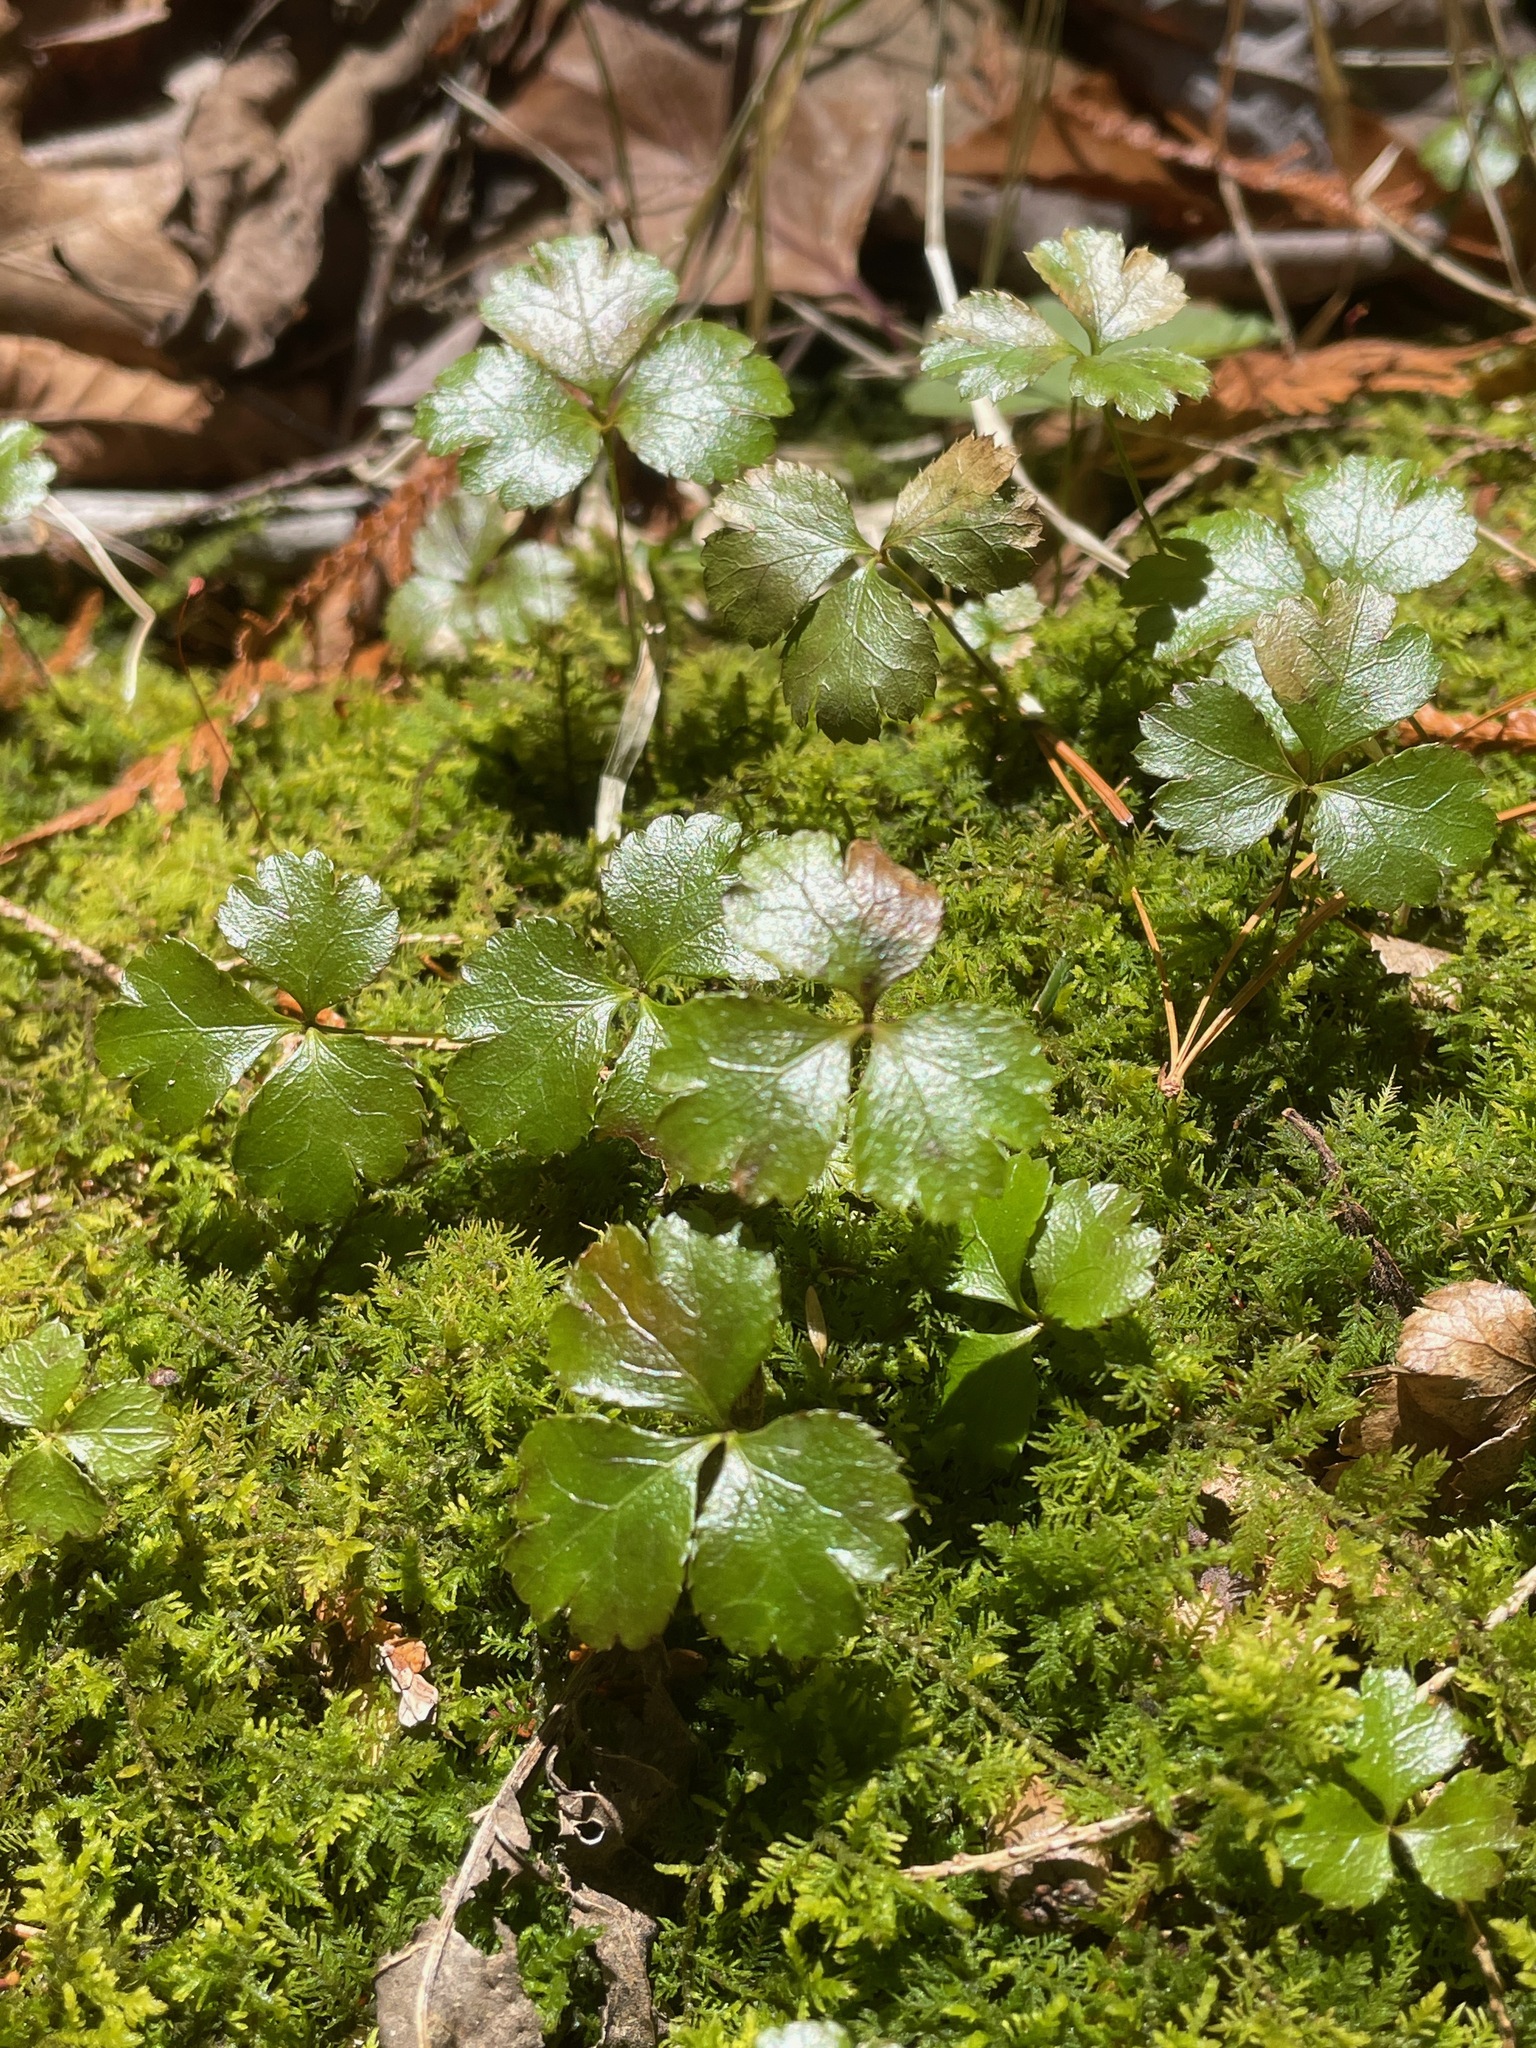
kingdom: Plantae
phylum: Tracheophyta
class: Magnoliopsida
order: Ranunculales
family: Ranunculaceae
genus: Coptis
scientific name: Coptis trifolia
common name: Canker-root
